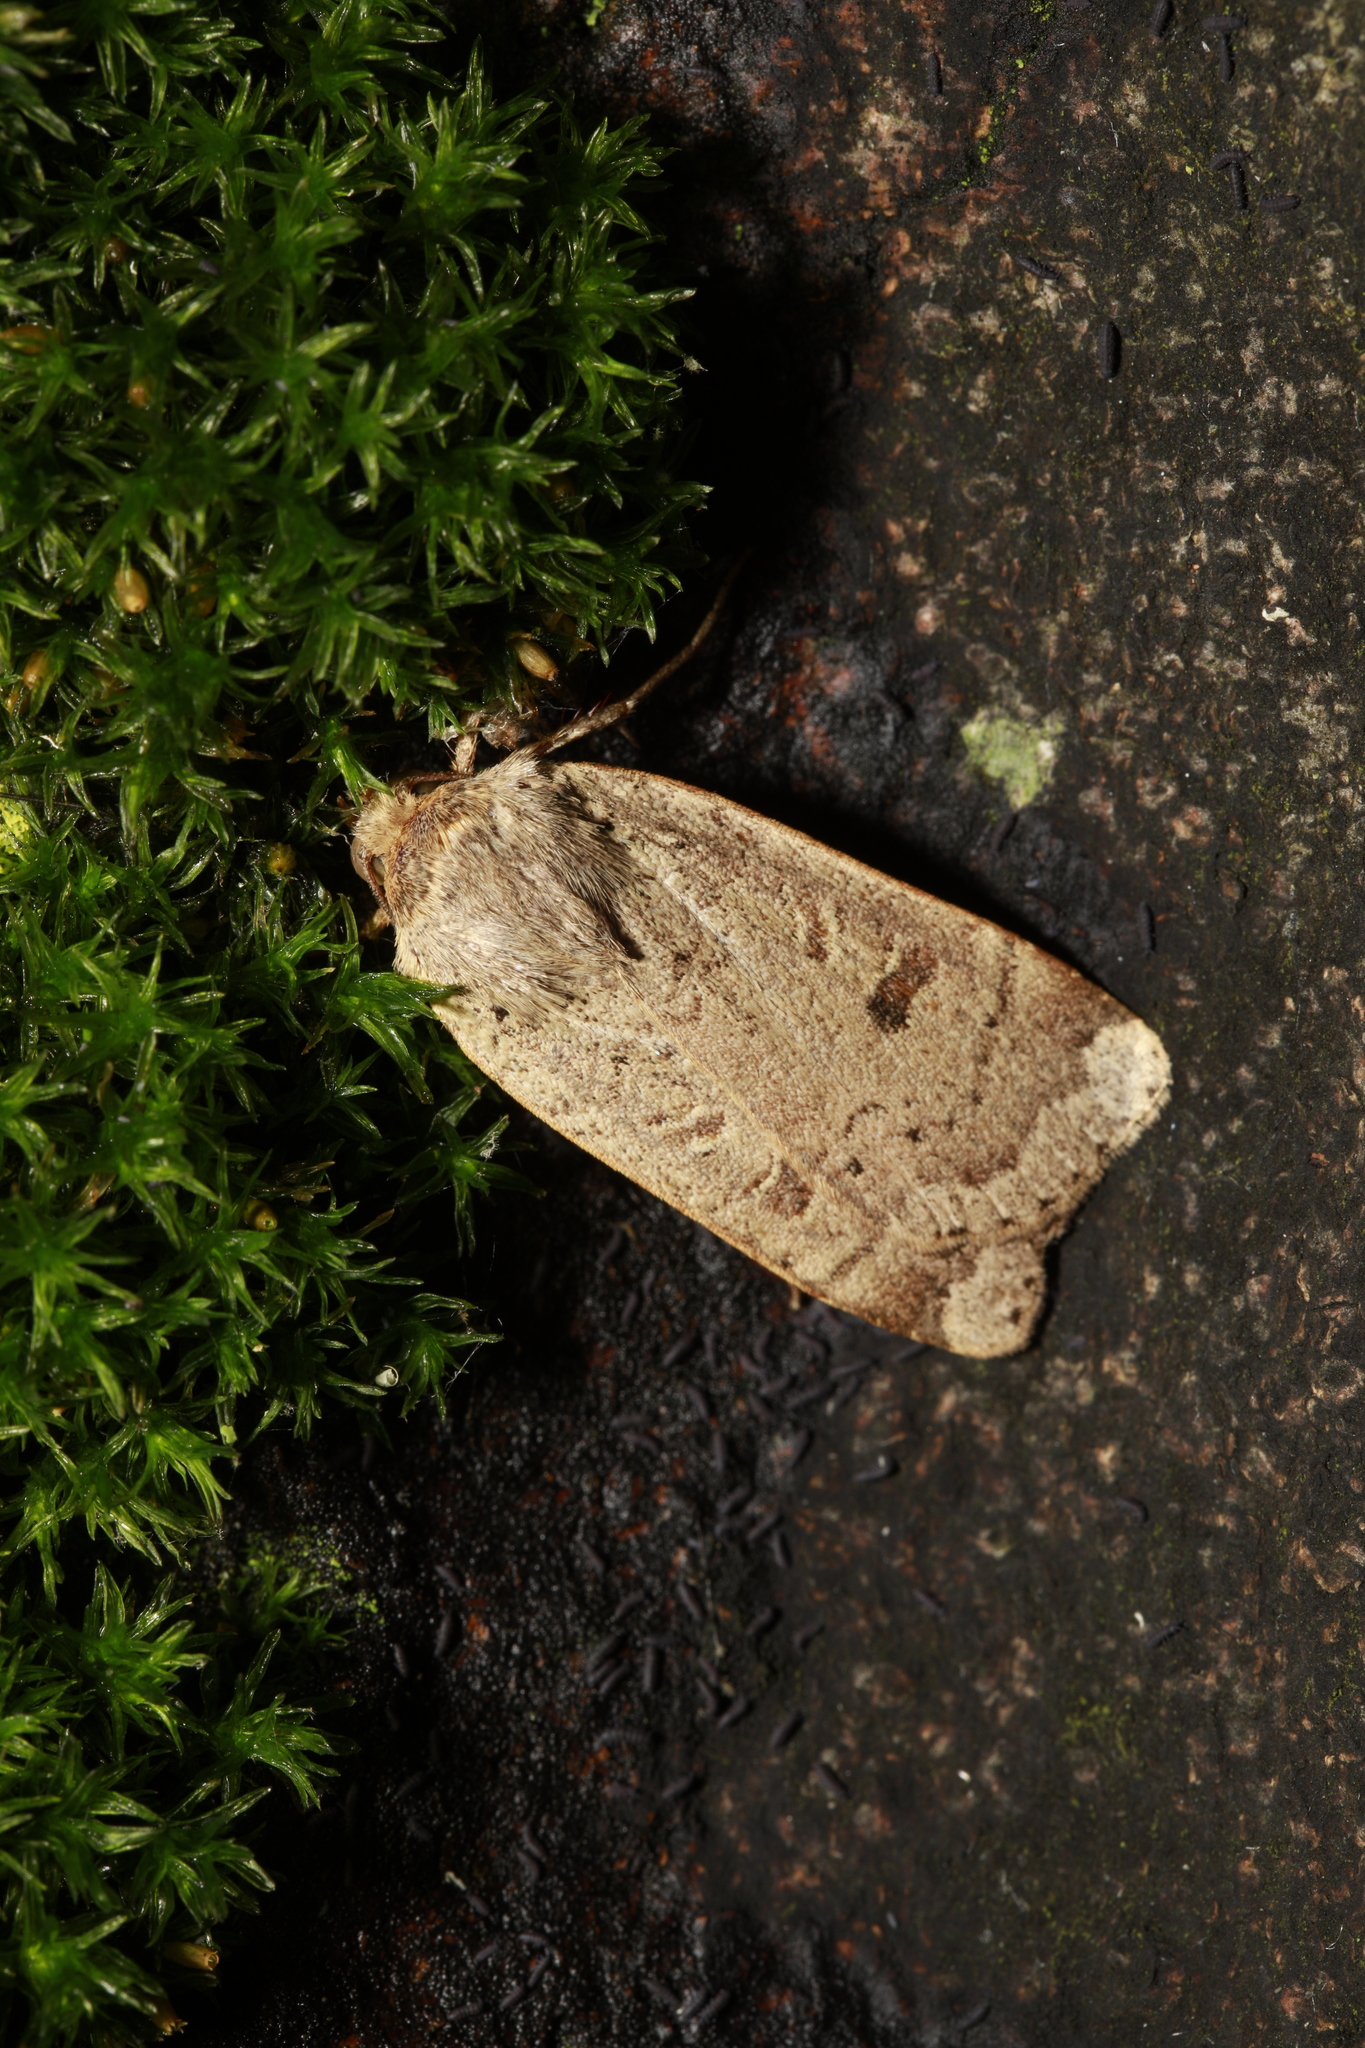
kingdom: Animalia
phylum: Arthropoda
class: Insecta
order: Lepidoptera
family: Noctuidae
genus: Noctua
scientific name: Noctua comes
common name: Lesser yellow underwing
